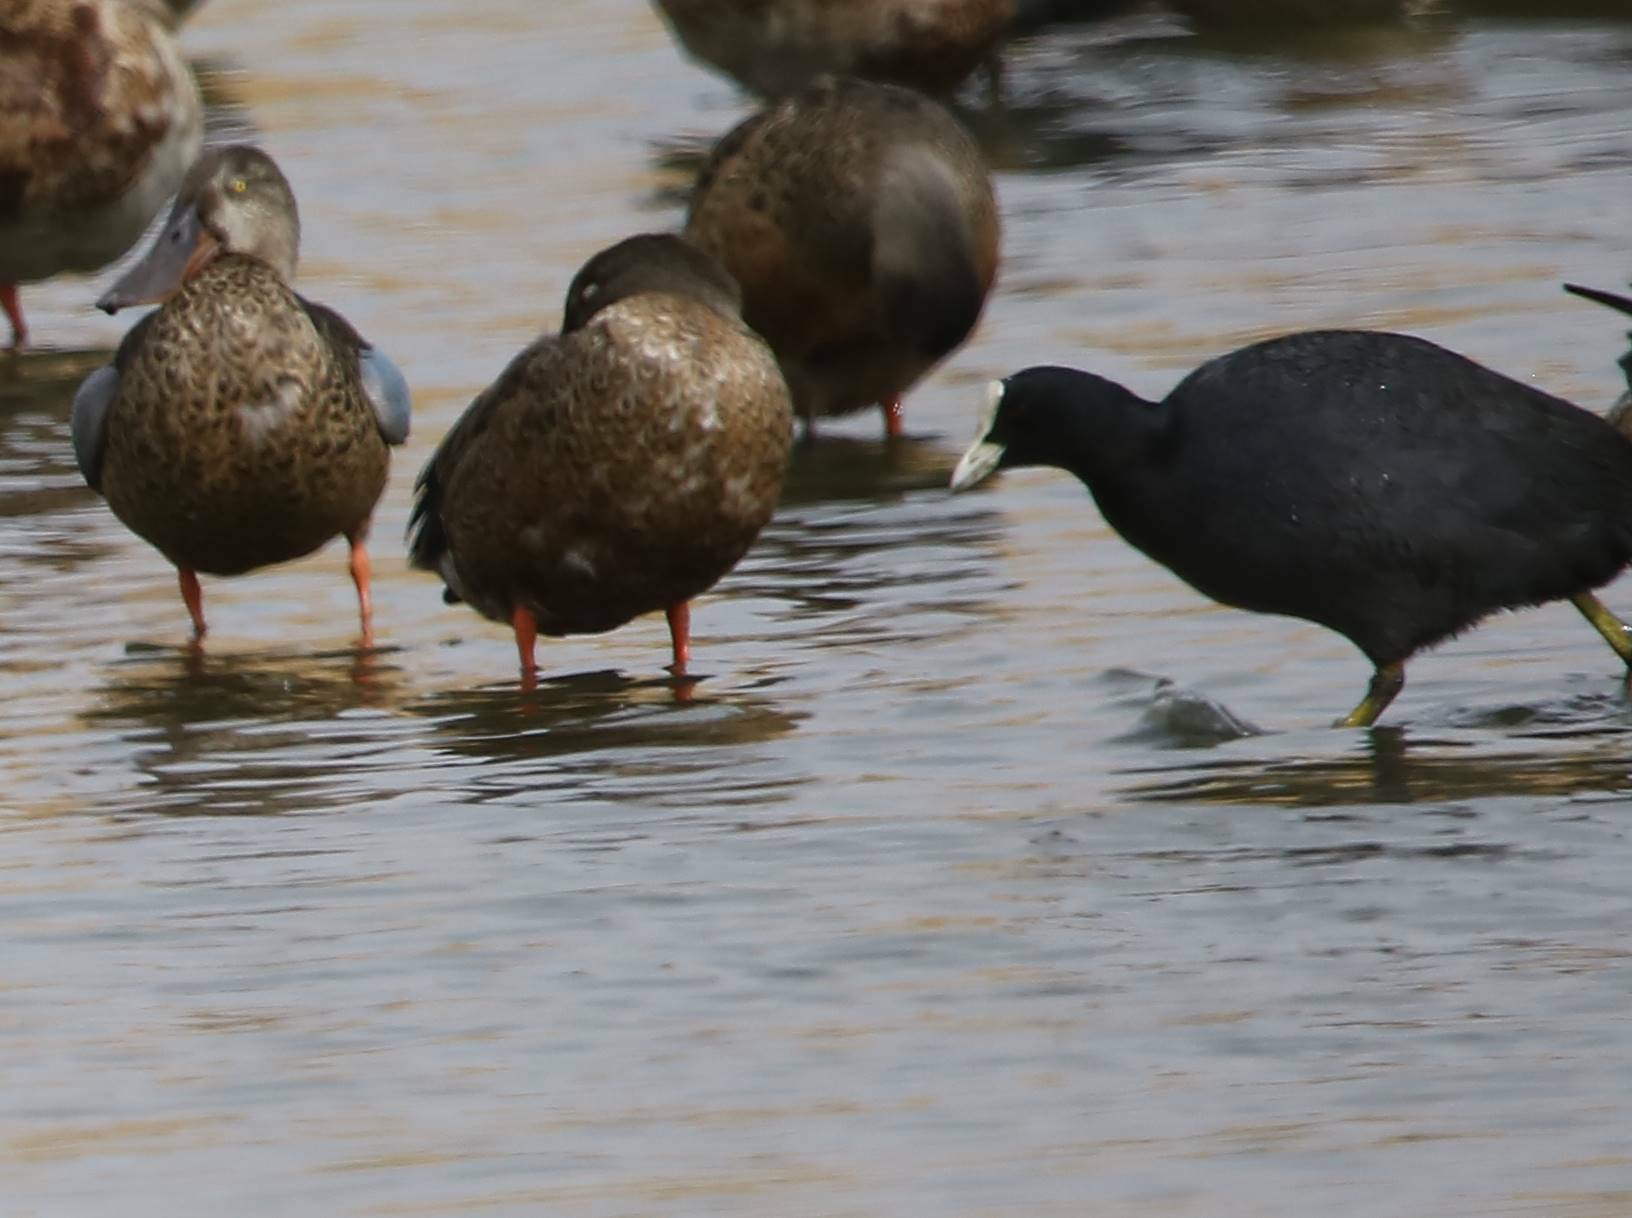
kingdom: Animalia
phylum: Chordata
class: Aves
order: Gruiformes
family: Rallidae
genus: Fulica
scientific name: Fulica atra
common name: Eurasian coot
